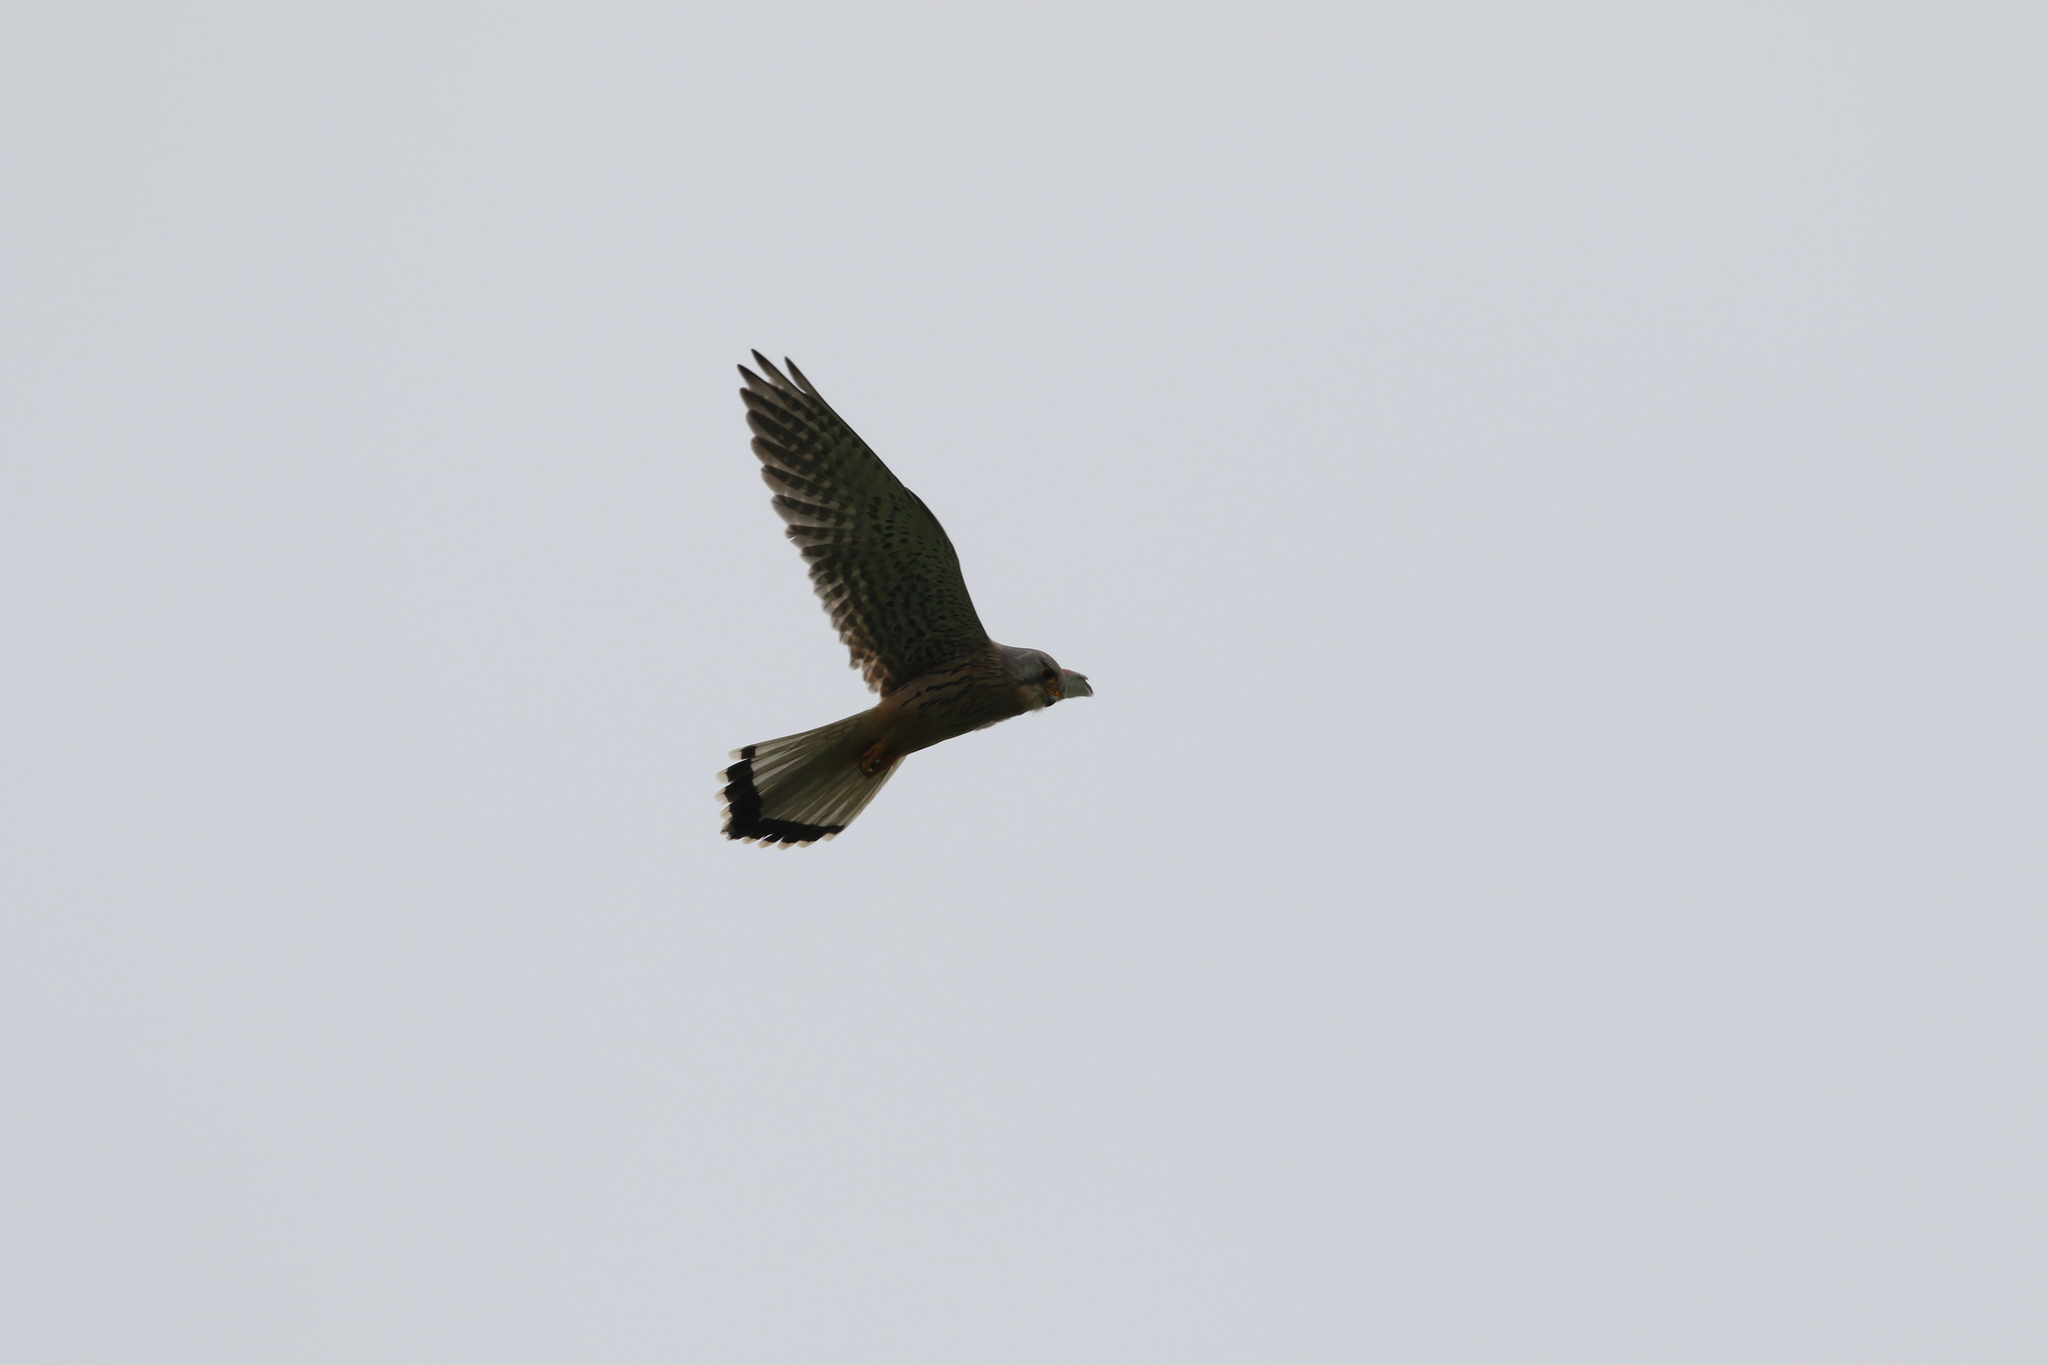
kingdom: Animalia
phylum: Chordata
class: Aves
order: Falconiformes
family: Falconidae
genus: Falco
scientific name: Falco tinnunculus
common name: Common kestrel
